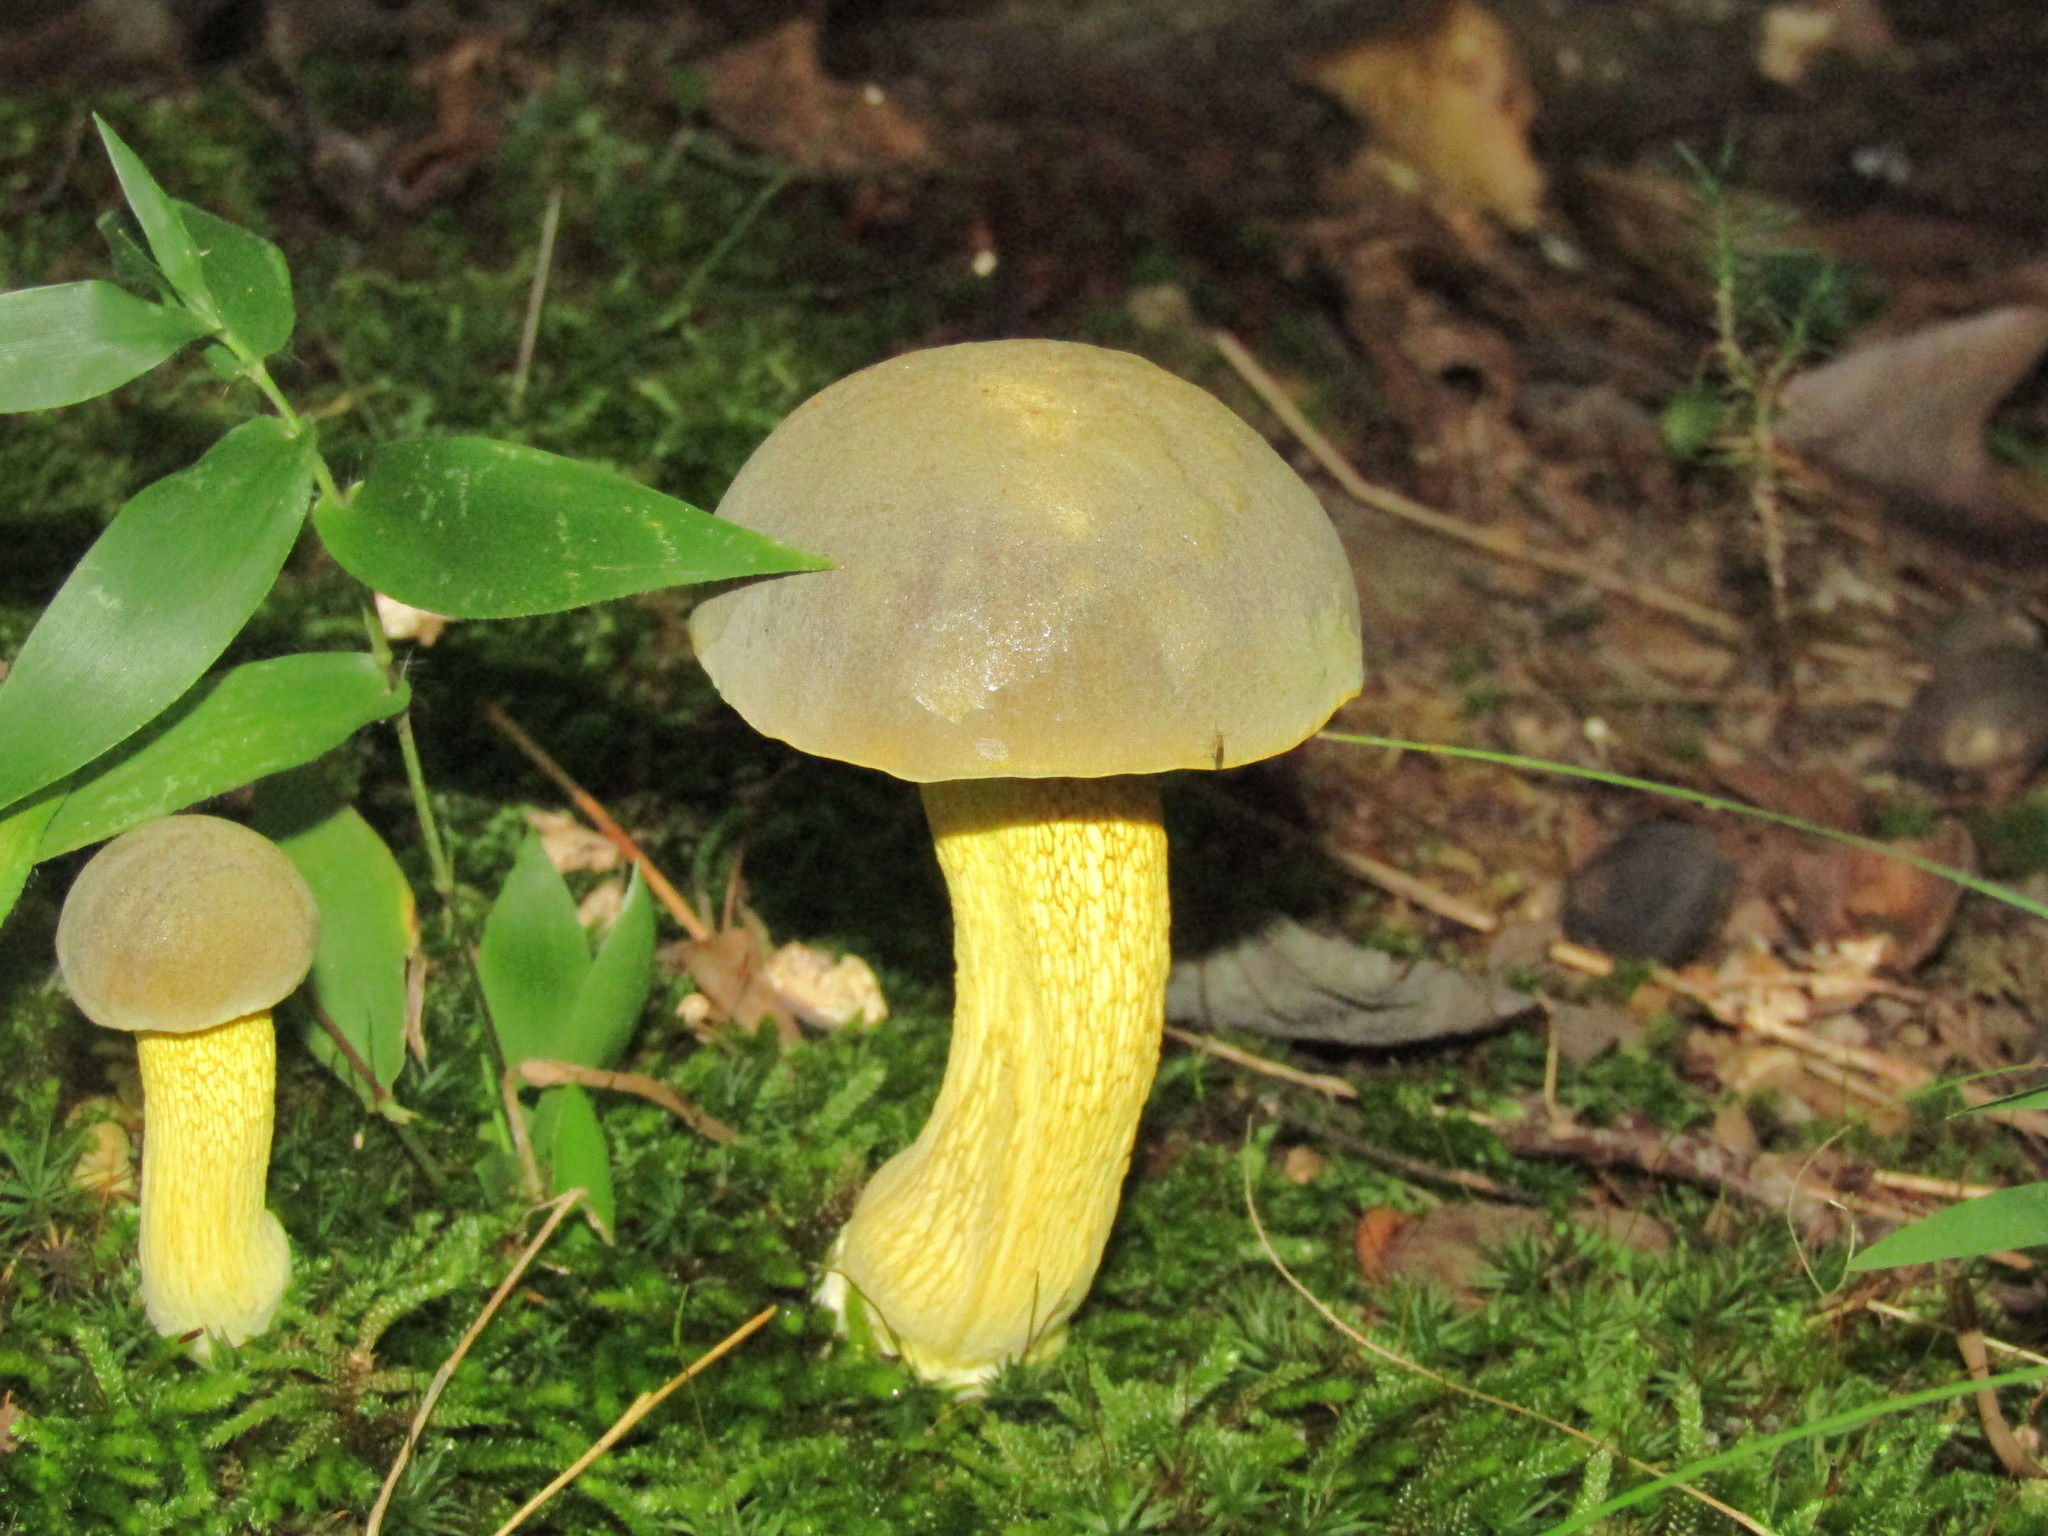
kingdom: Fungi
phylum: Basidiomycota
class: Agaricomycetes
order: Boletales
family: Boletaceae
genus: Retiboletus
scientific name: Retiboletus ornatipes
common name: Ornate-stalked bolete
